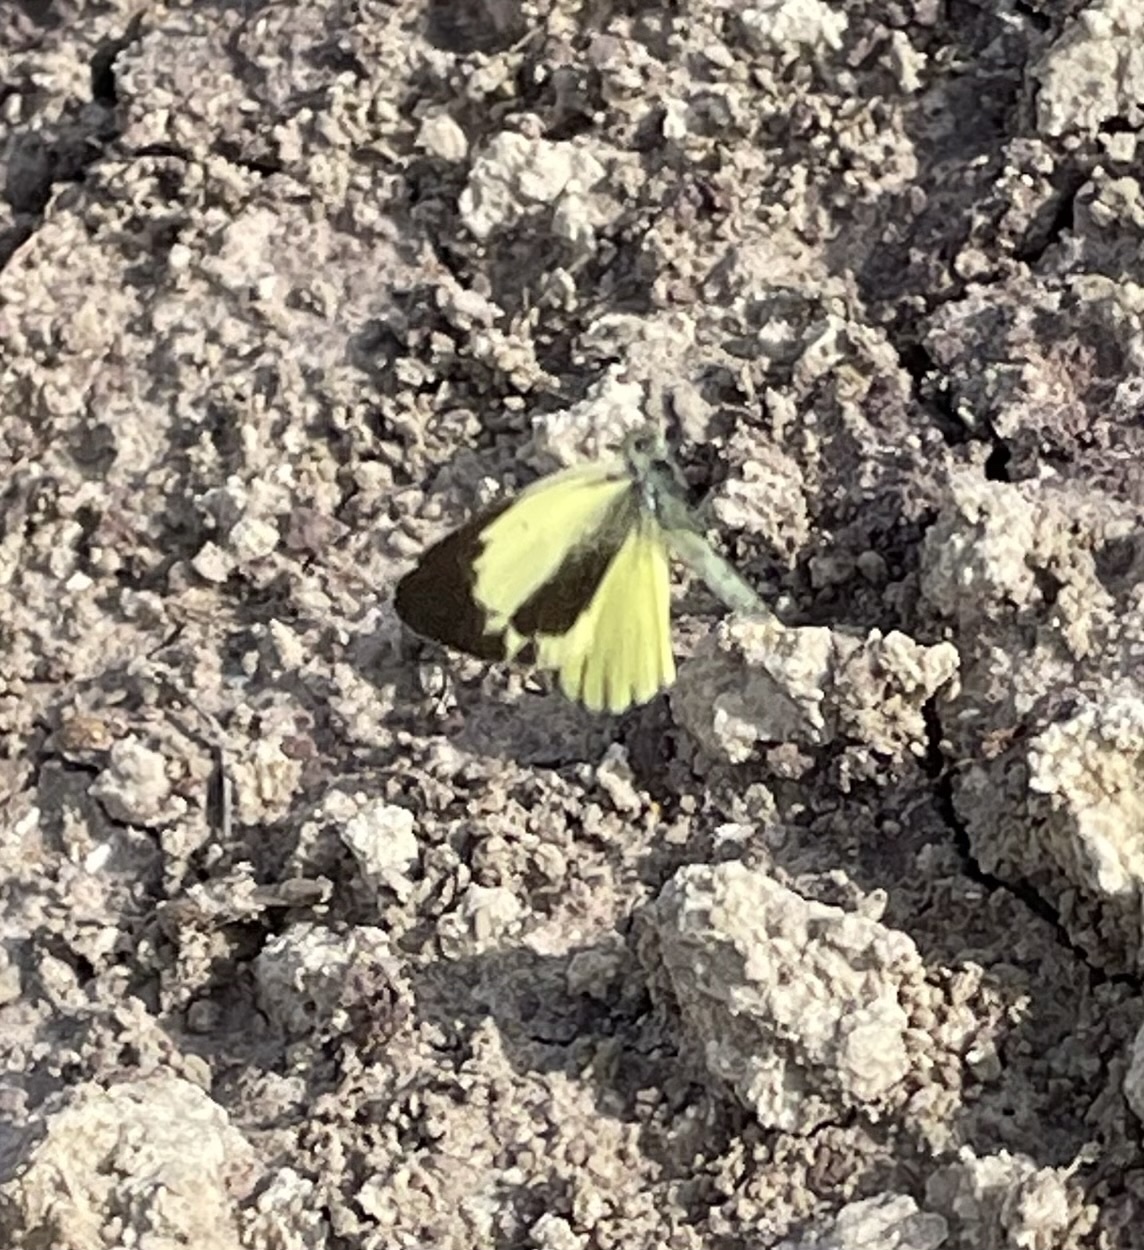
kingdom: Animalia
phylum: Arthropoda
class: Insecta
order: Lepidoptera
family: Pieridae
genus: Nathalis
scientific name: Nathalis iole
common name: Dainty sulphur
